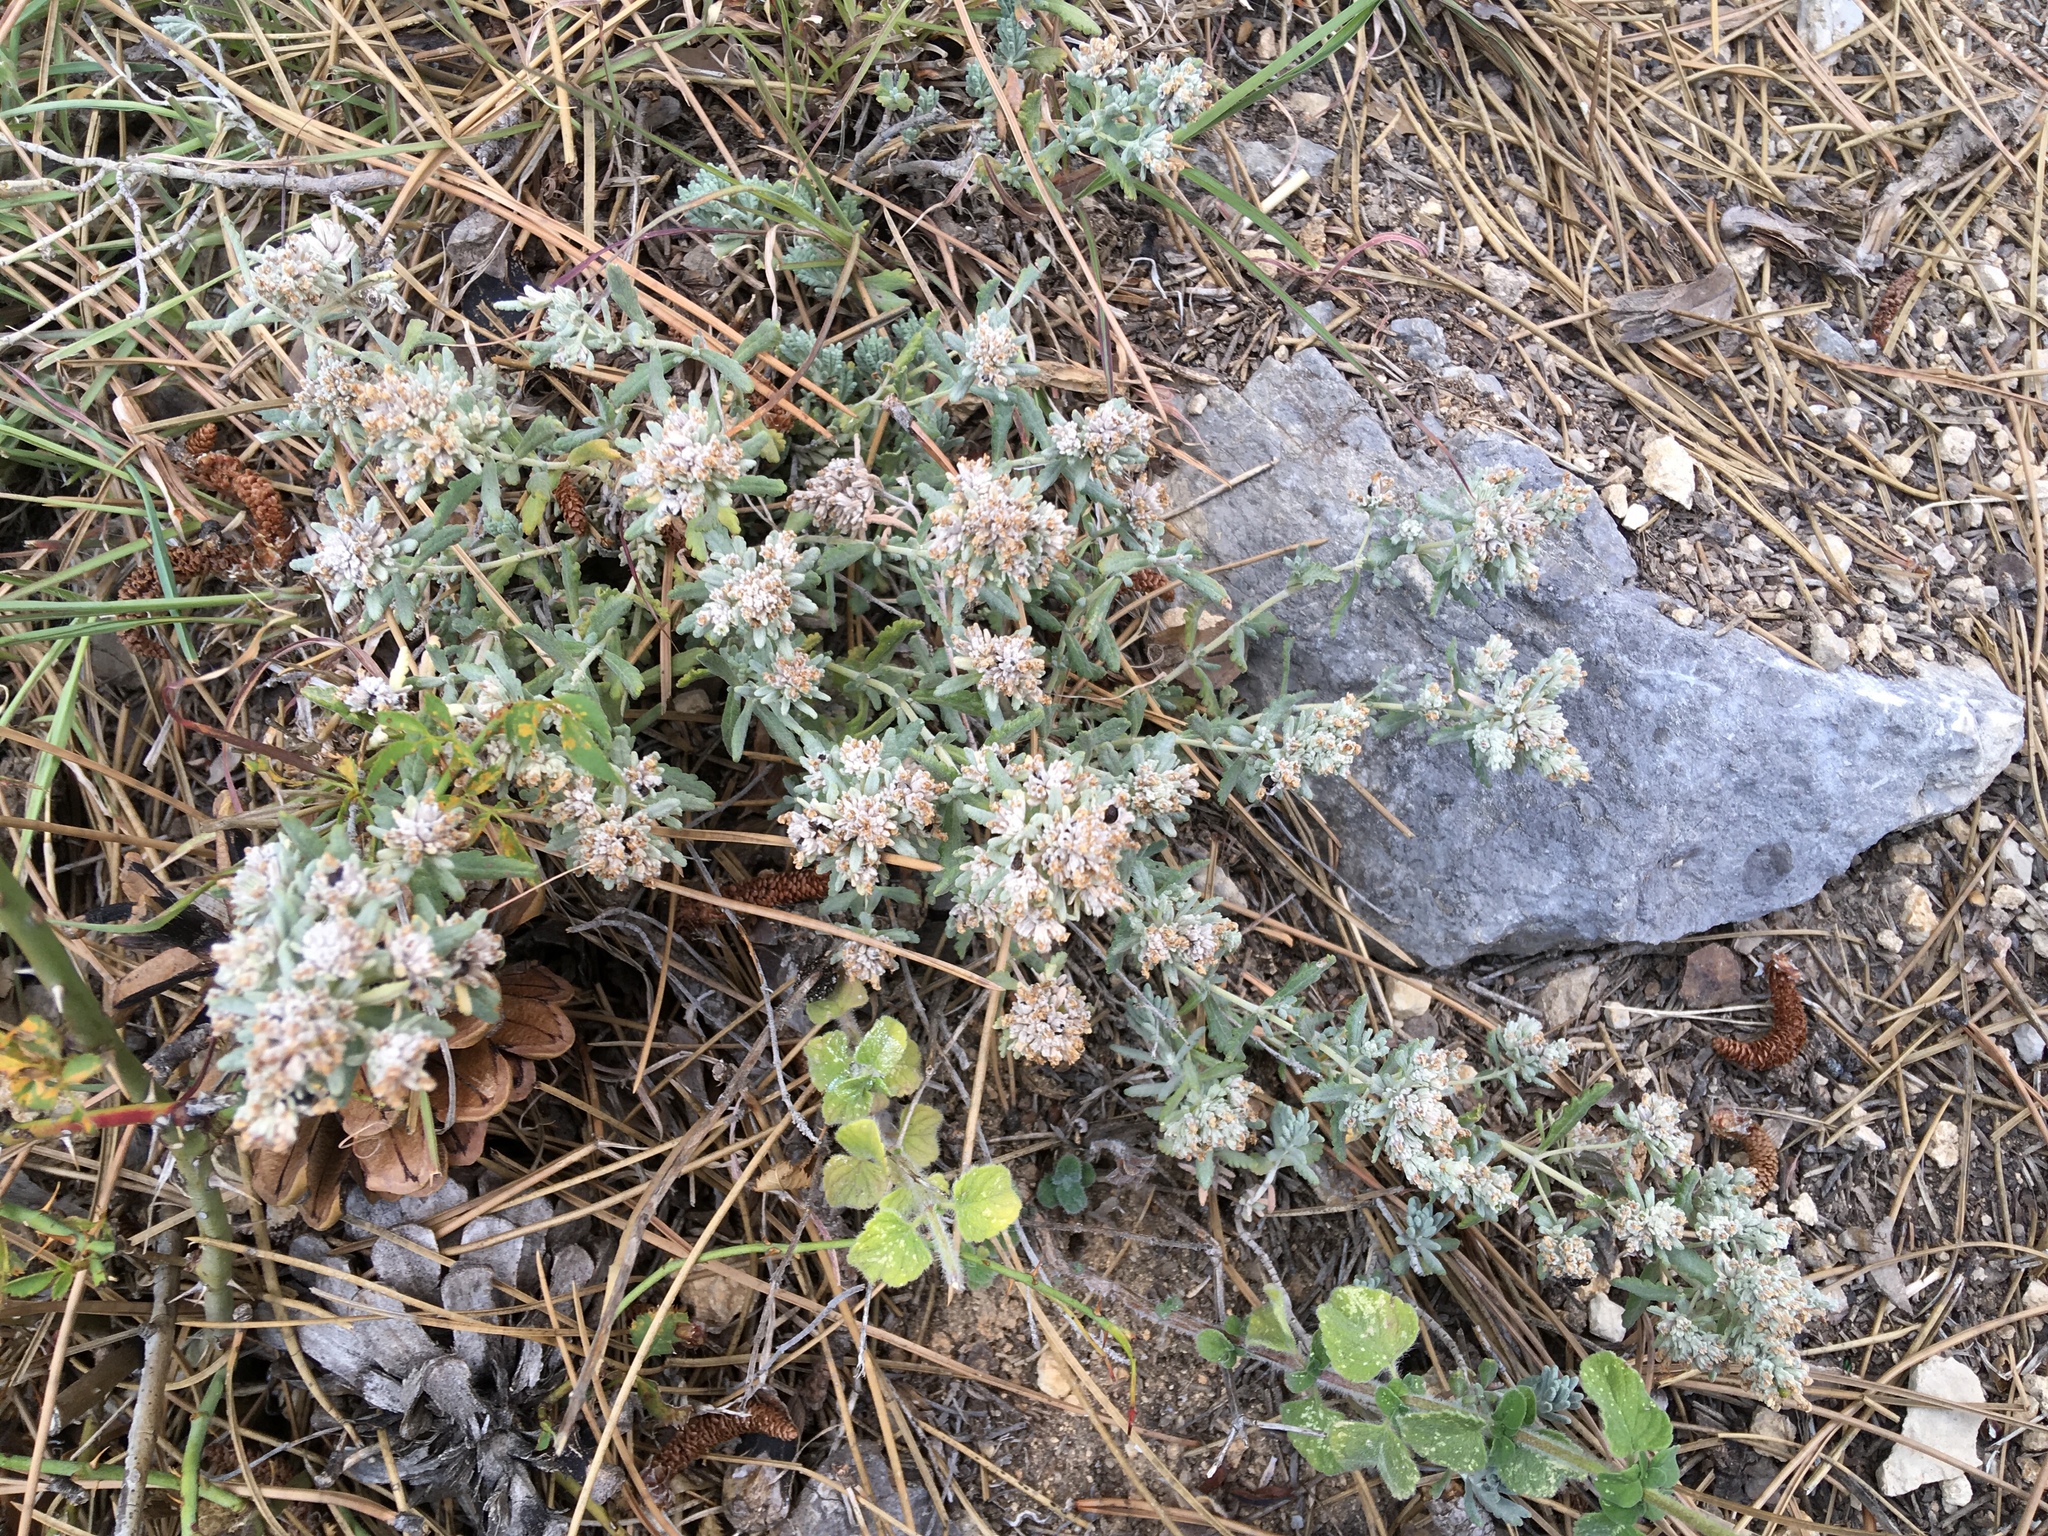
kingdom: Plantae
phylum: Tracheophyta
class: Magnoliopsida
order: Lamiales
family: Lamiaceae
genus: Teucrium
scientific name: Teucrium polium
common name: Poley
